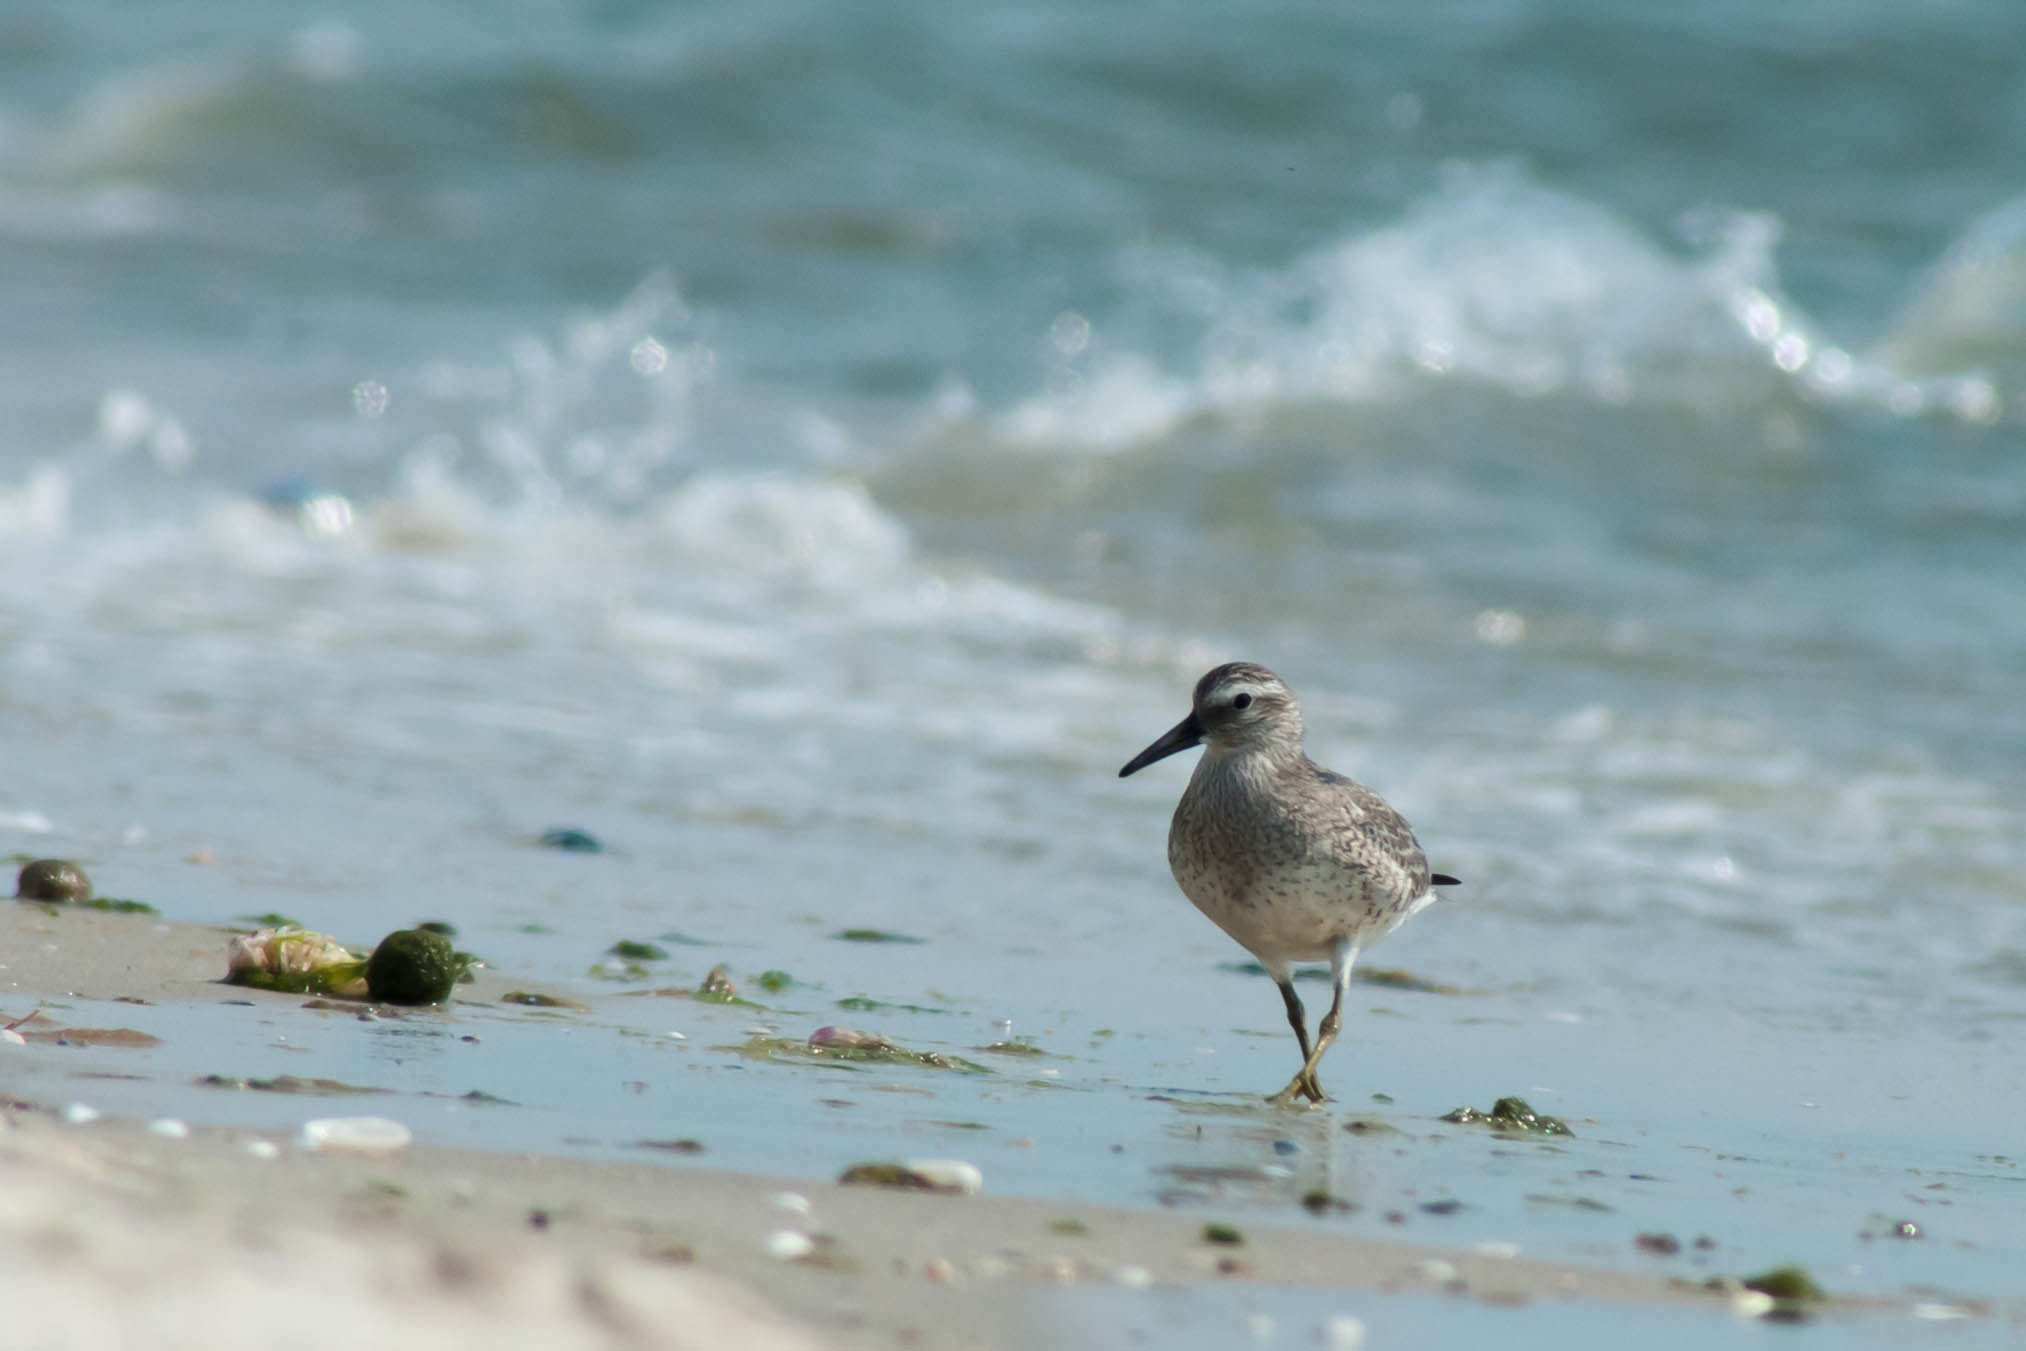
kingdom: Animalia
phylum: Chordata
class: Aves
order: Charadriiformes
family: Scolopacidae
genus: Calidris
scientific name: Calidris canutus
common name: Red knot
